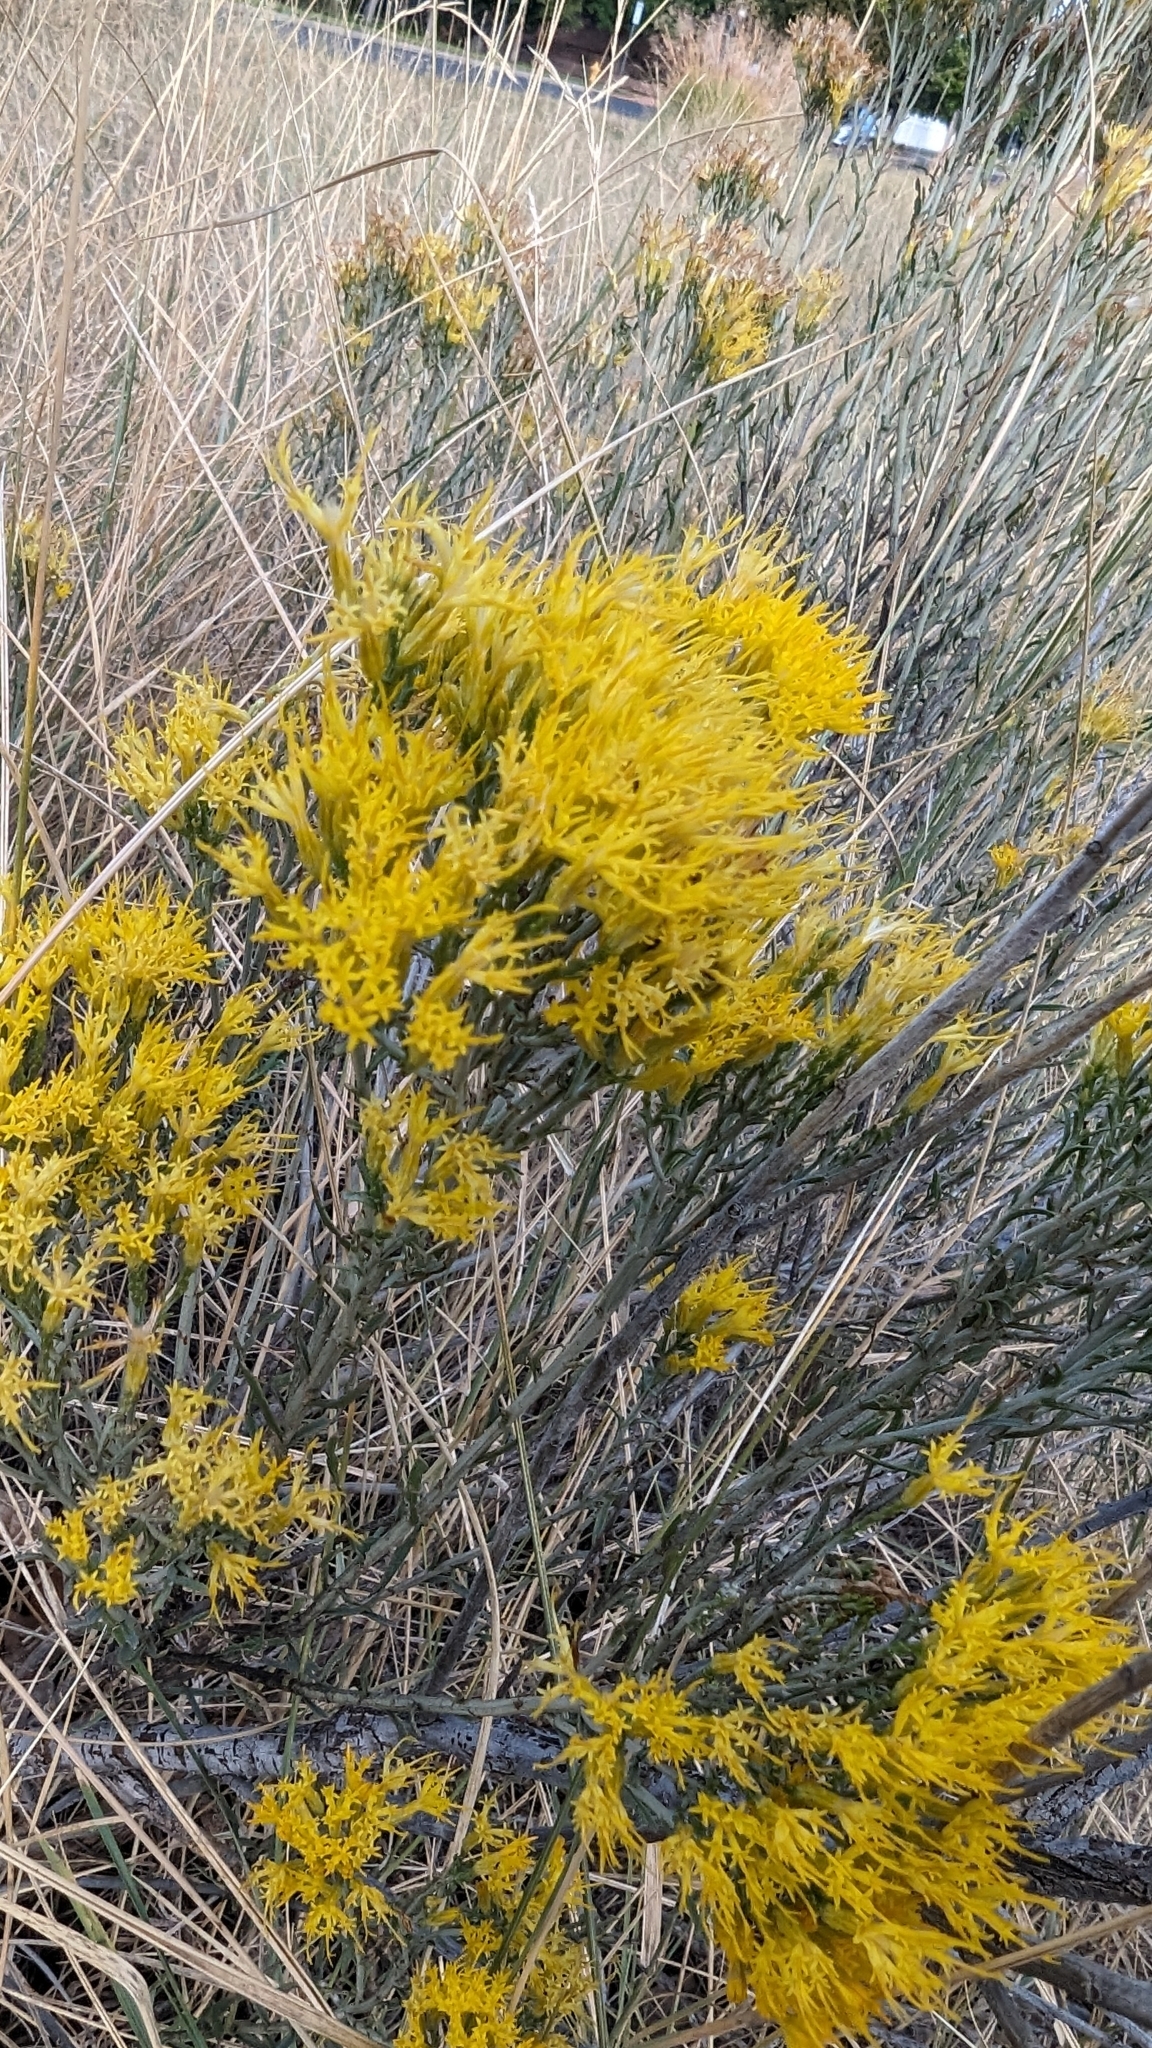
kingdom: Plantae
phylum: Tracheophyta
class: Magnoliopsida
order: Asterales
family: Asteraceae
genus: Ericameria
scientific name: Ericameria nauseosa
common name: Rubber rabbitbrush
